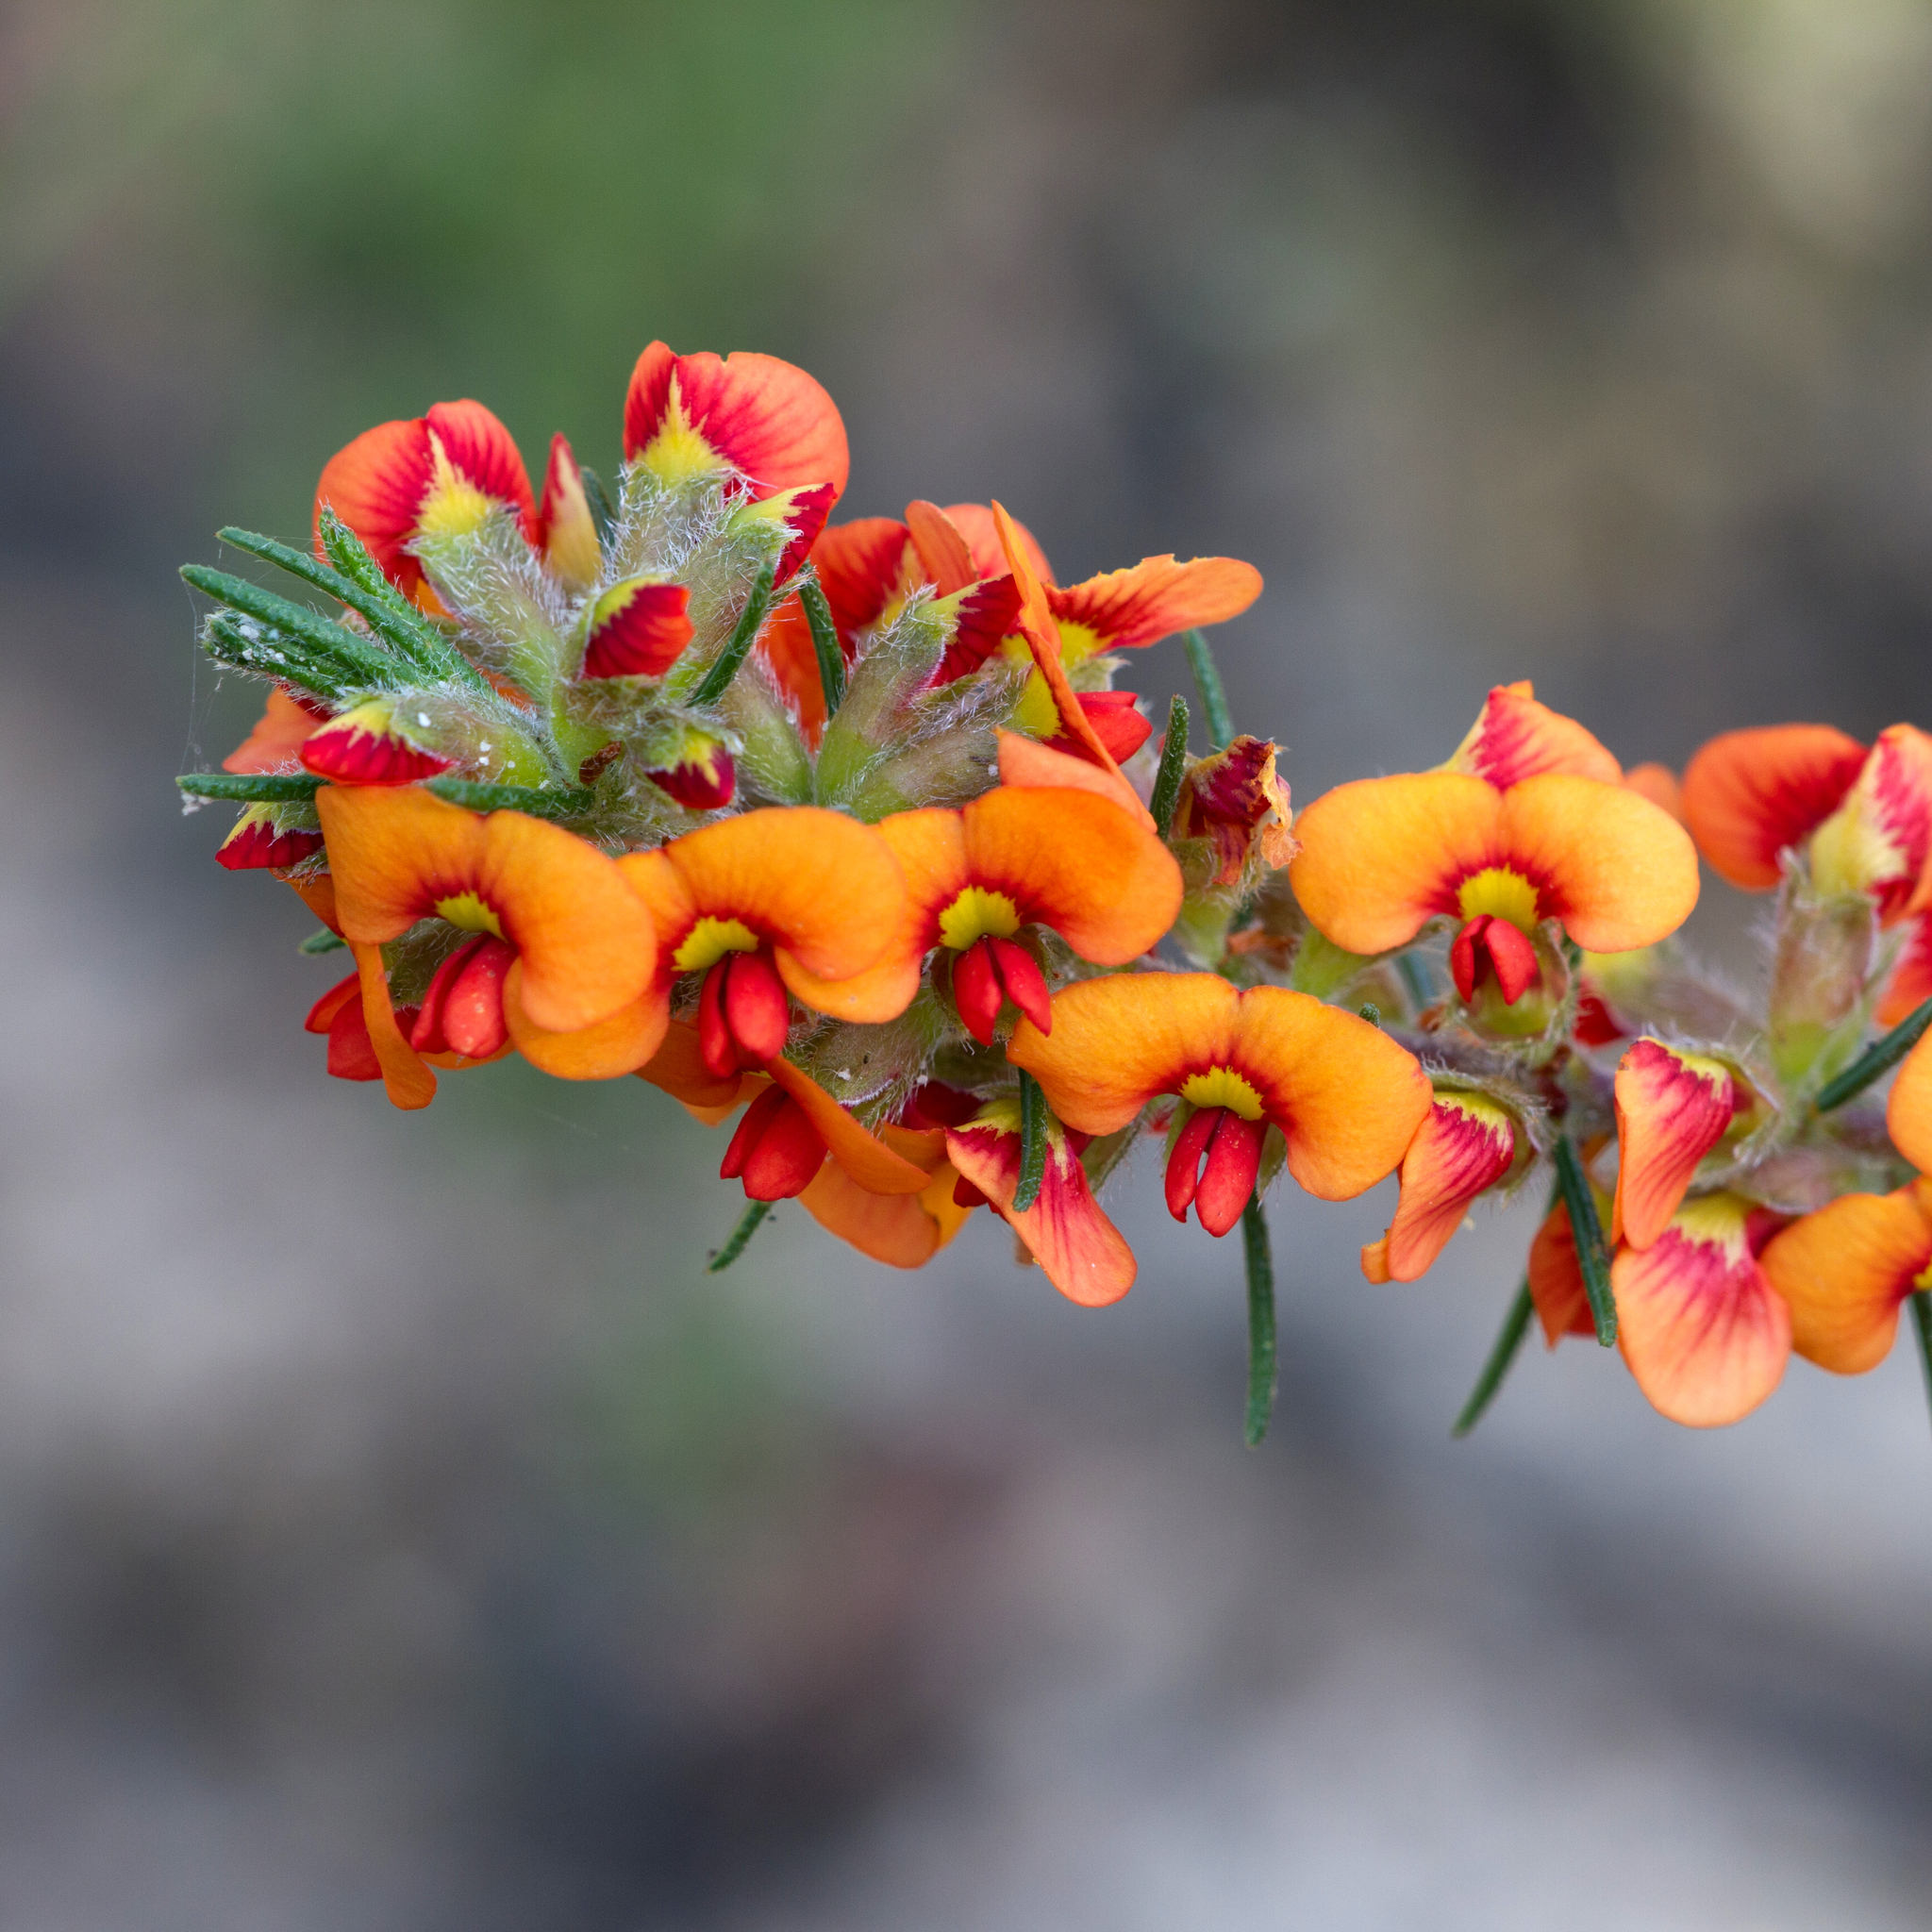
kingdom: Plantae
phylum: Tracheophyta
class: Magnoliopsida
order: Fabales
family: Fabaceae
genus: Dillwynia
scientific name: Dillwynia sericea
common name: Showy parrot-pea
